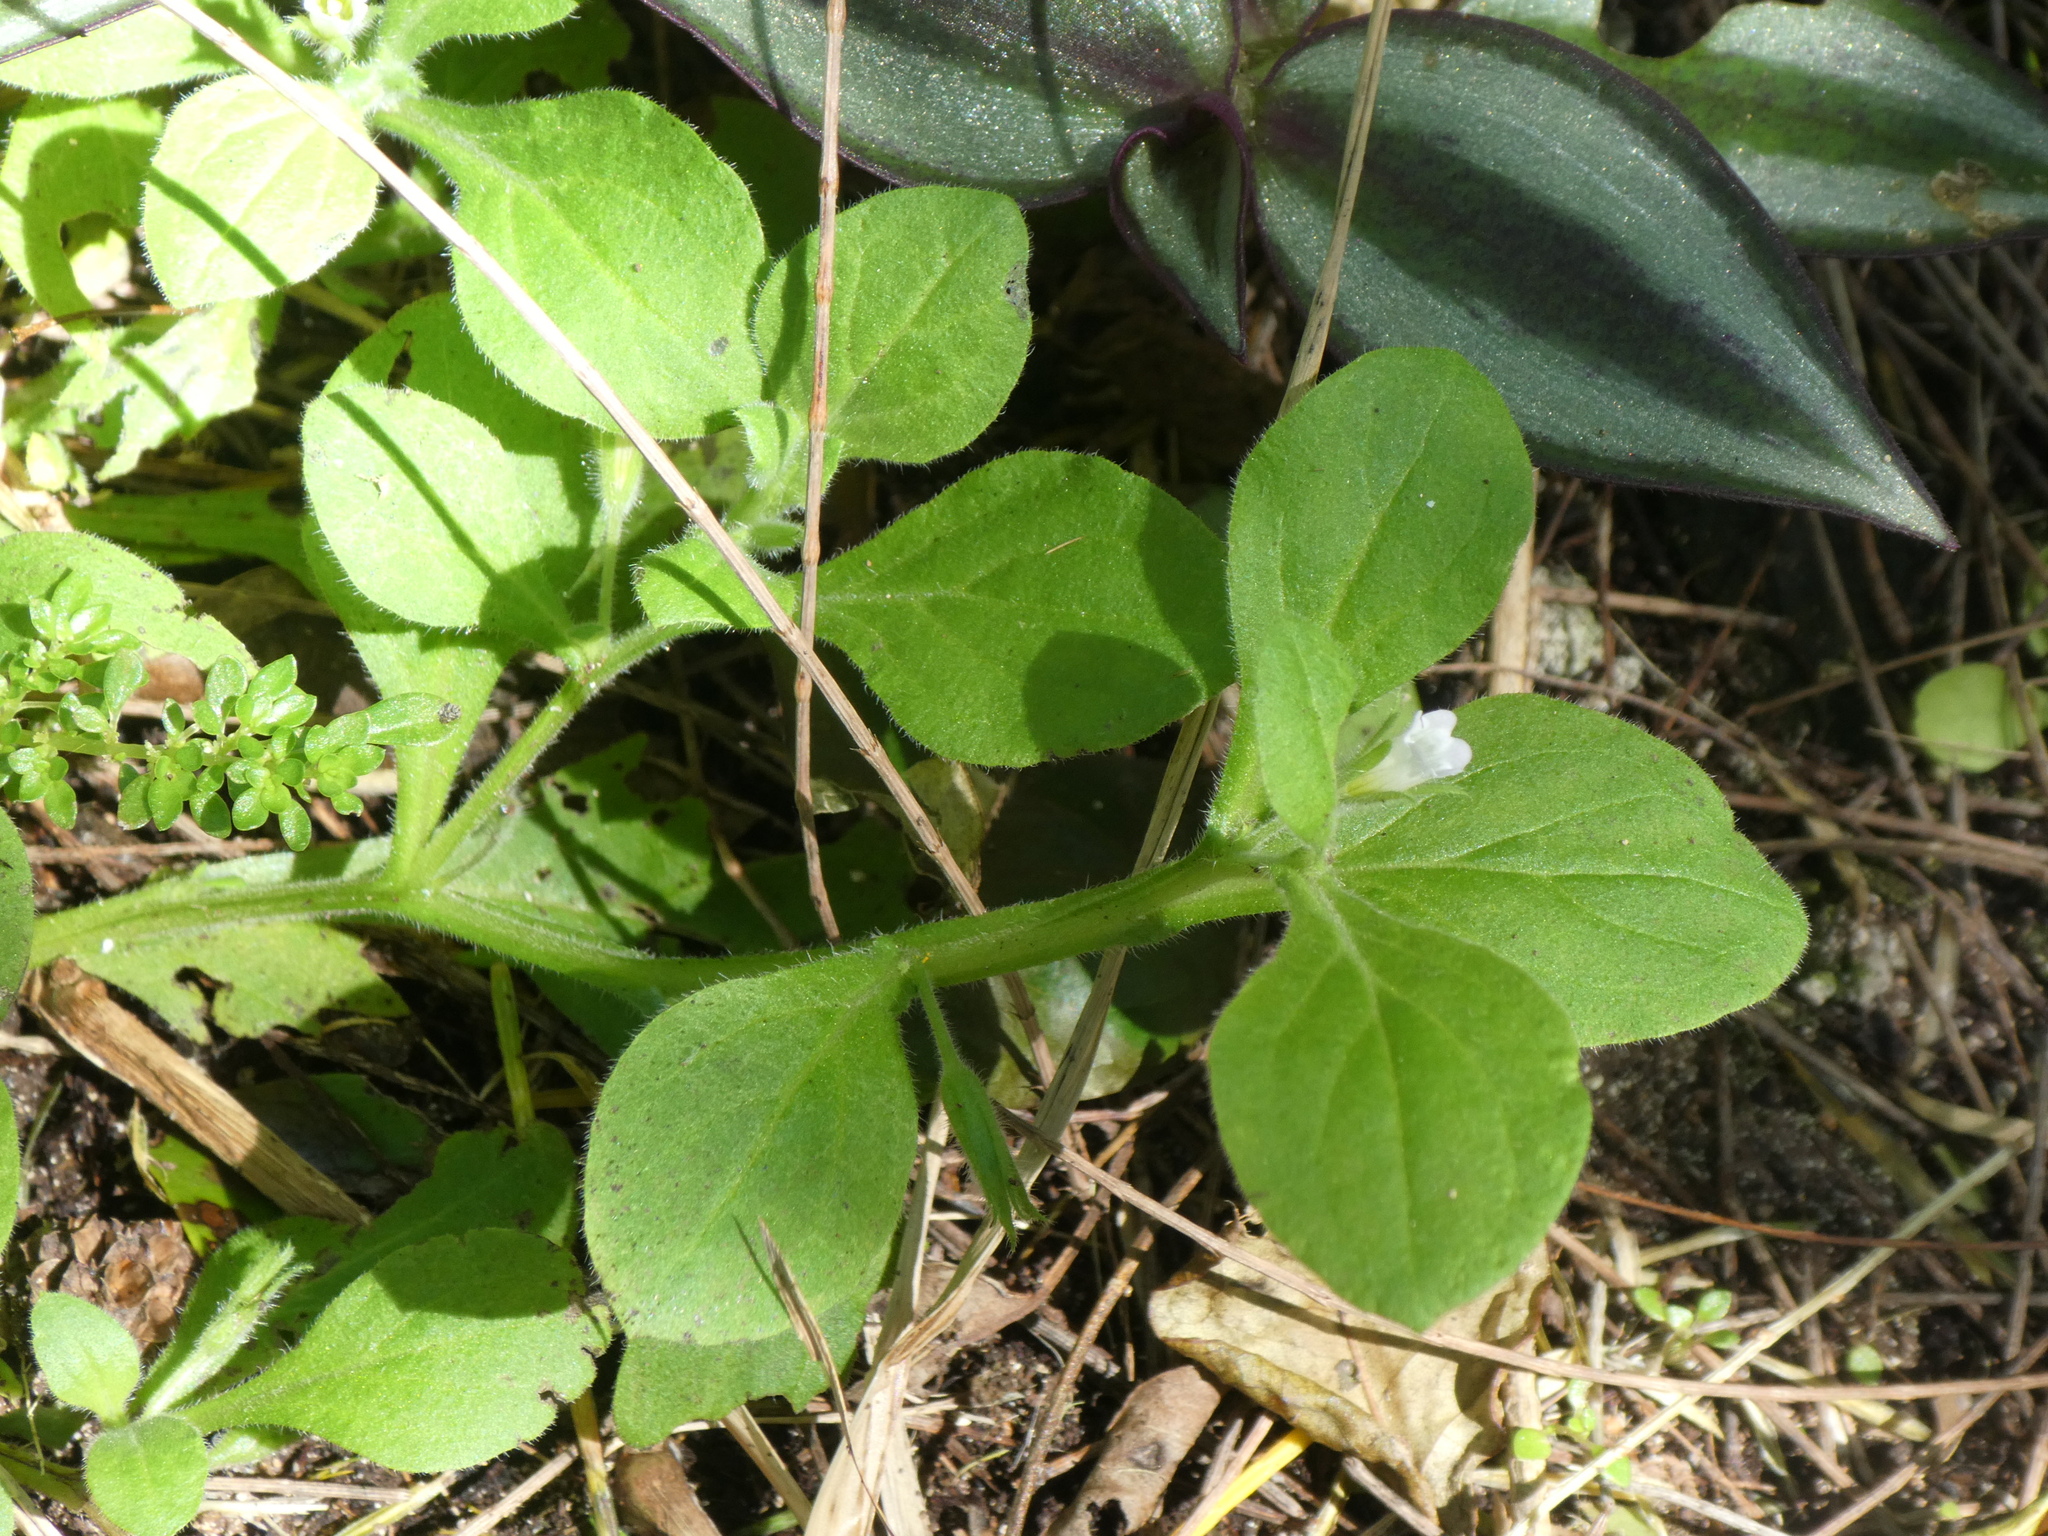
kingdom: Plantae
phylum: Tracheophyta
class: Magnoliopsida
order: Boraginales
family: Namaceae
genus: Nama
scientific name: Nama jamaicensis
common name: Jamaicanweed
